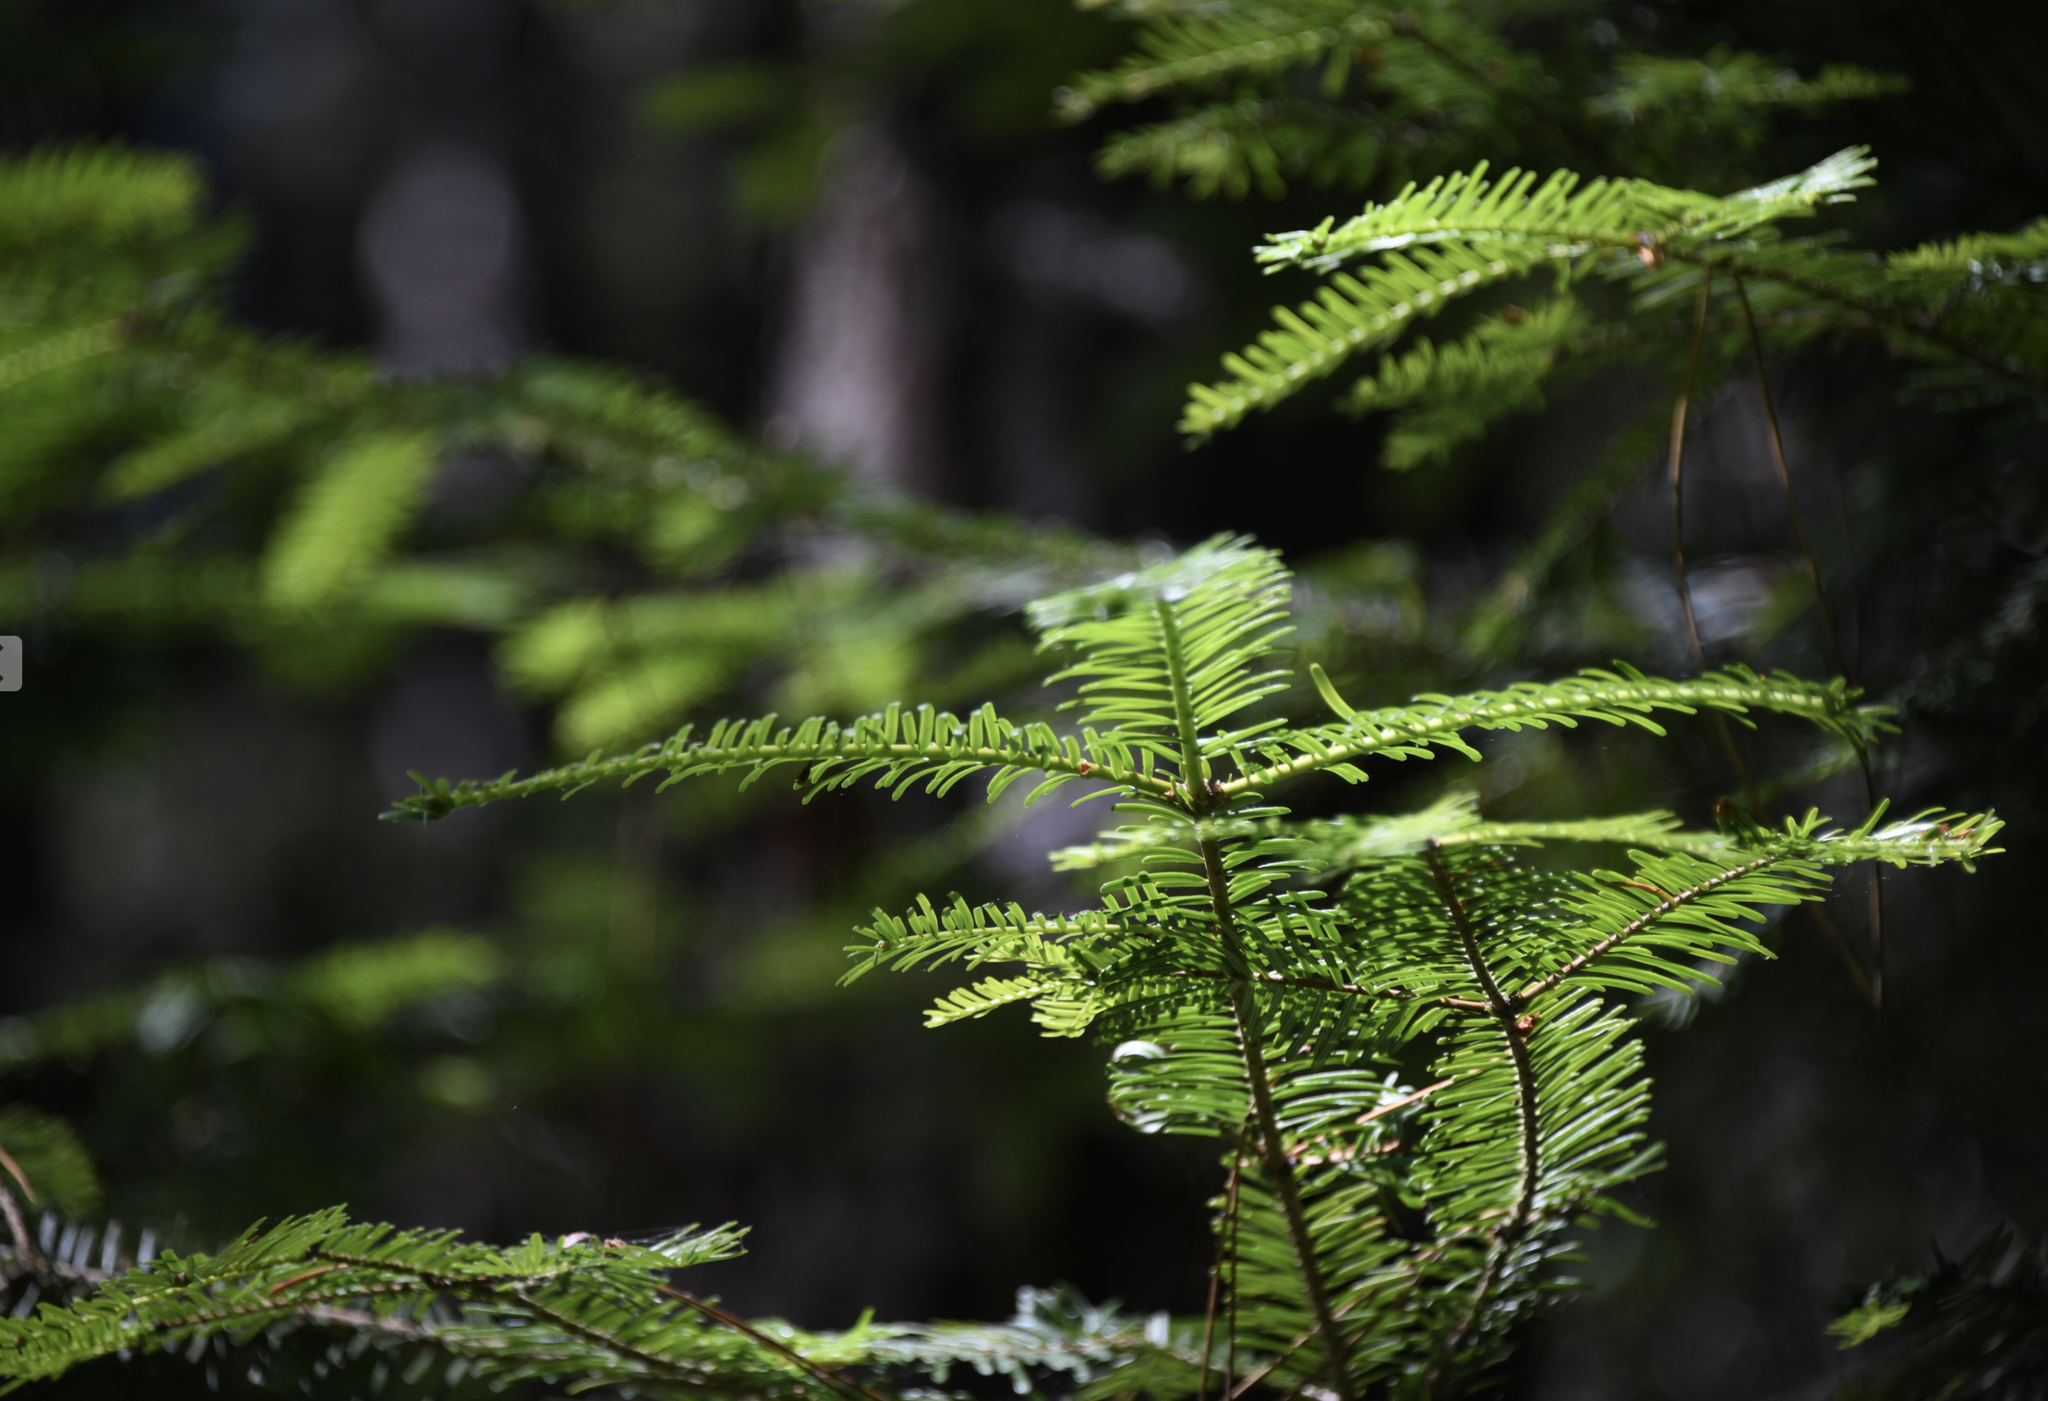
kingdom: Plantae
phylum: Tracheophyta
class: Pinopsida
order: Pinales
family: Pinaceae
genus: Abies
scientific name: Abies grandis
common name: Giant fir
